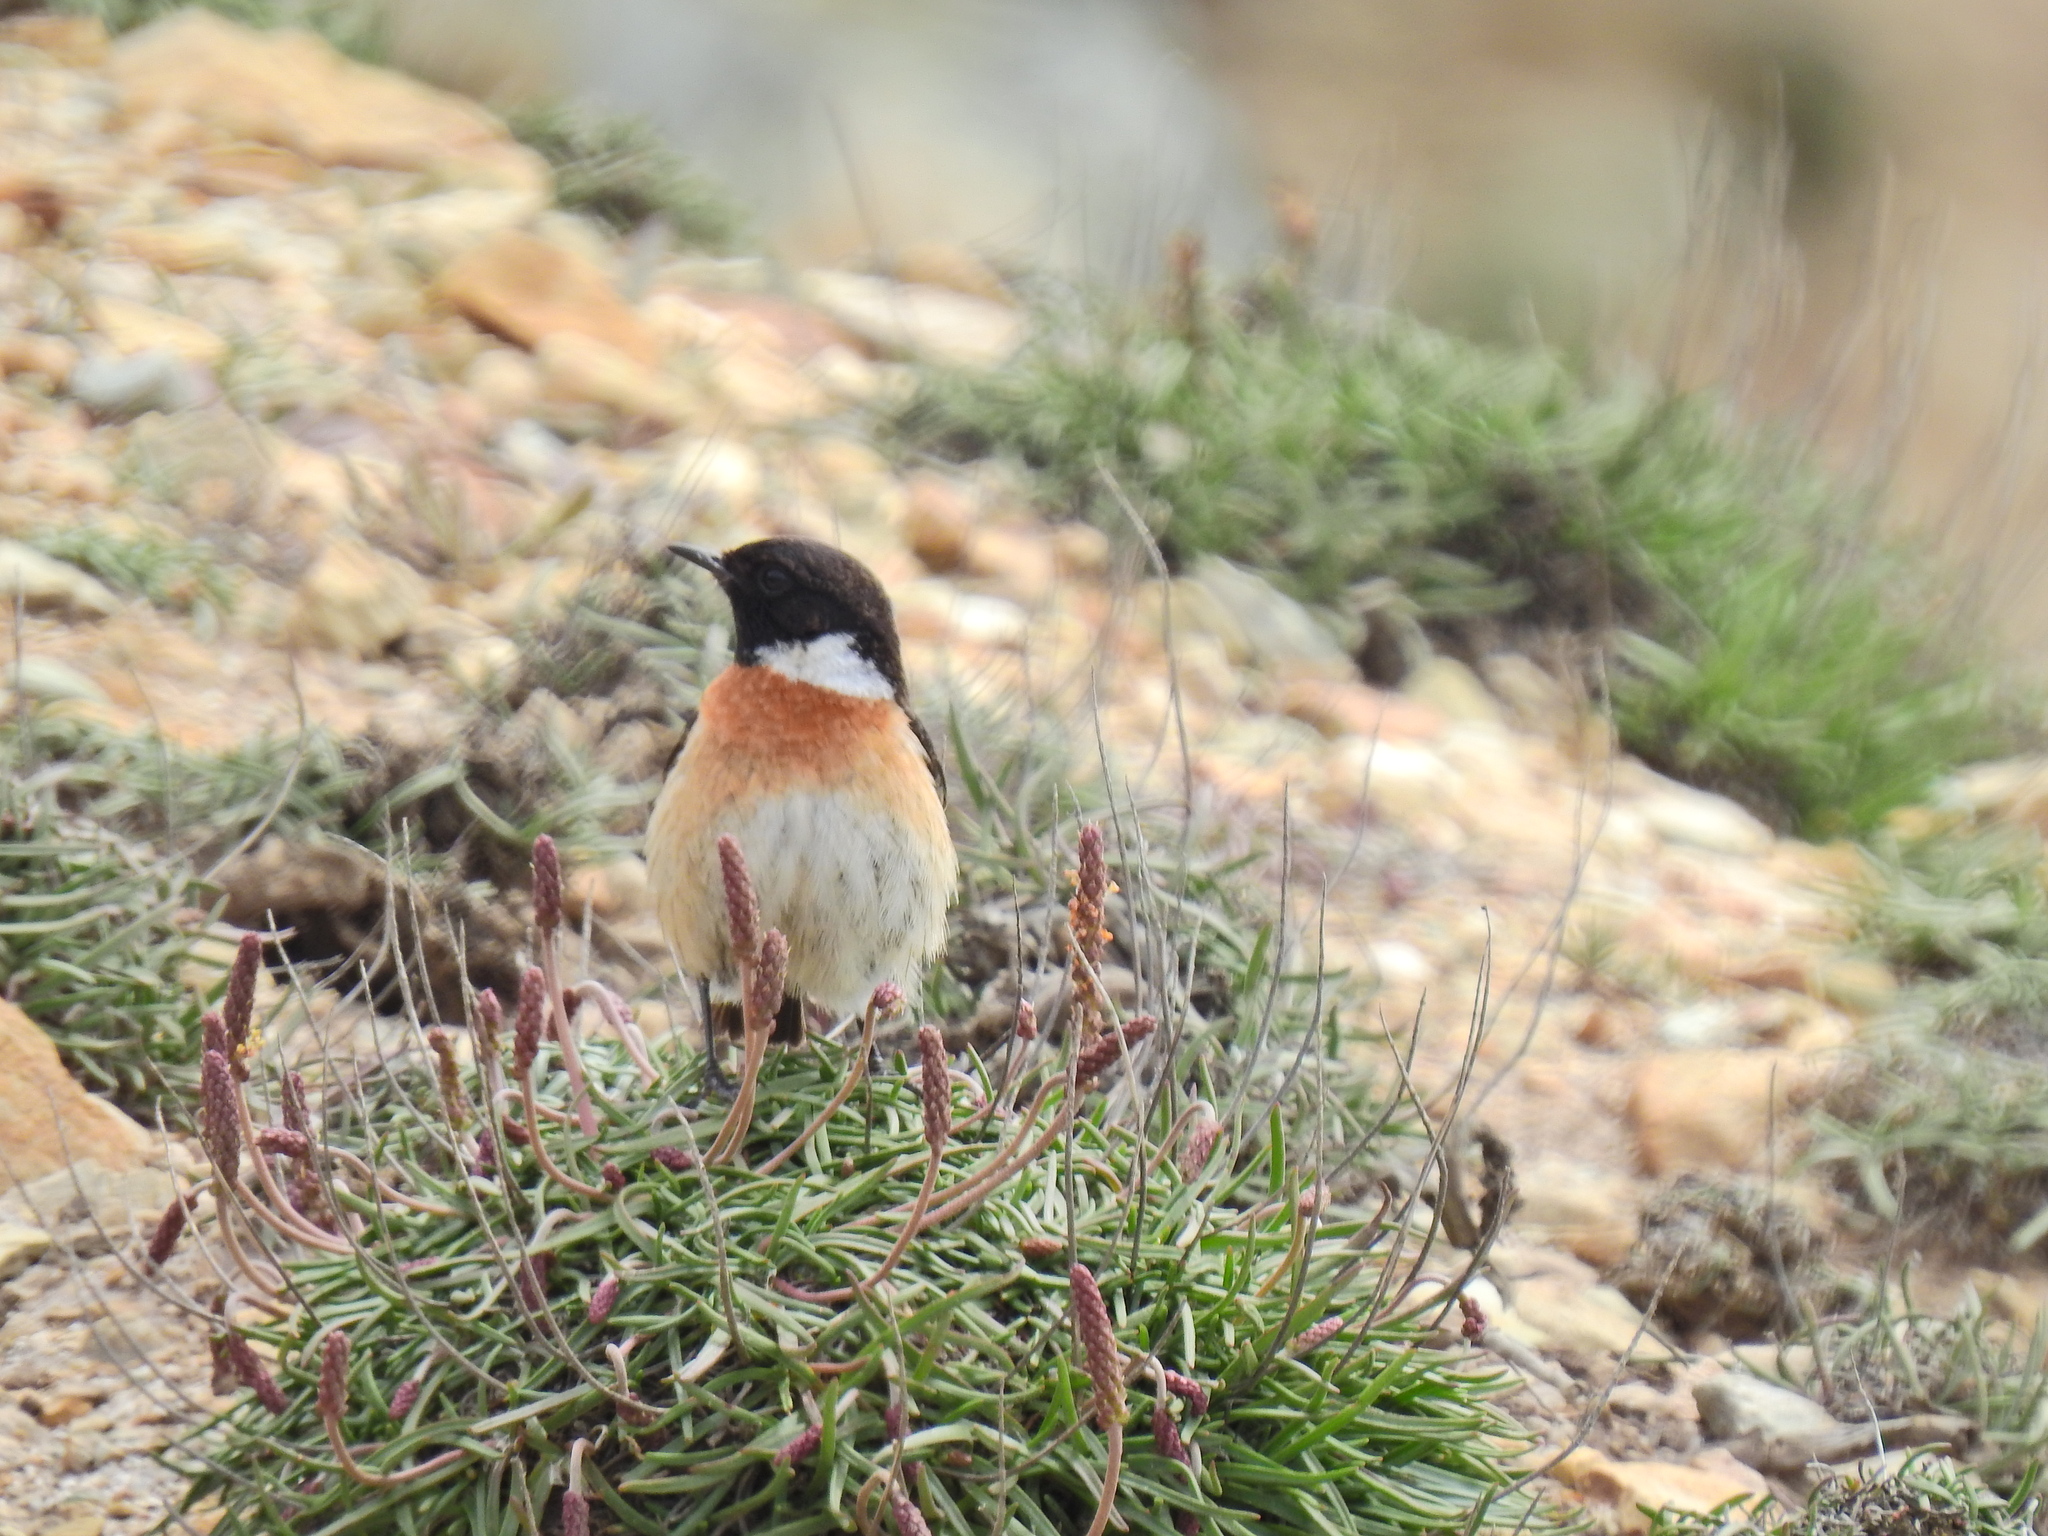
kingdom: Animalia
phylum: Chordata
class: Aves
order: Passeriformes
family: Muscicapidae
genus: Saxicola
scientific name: Saxicola rubicola
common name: European stonechat
